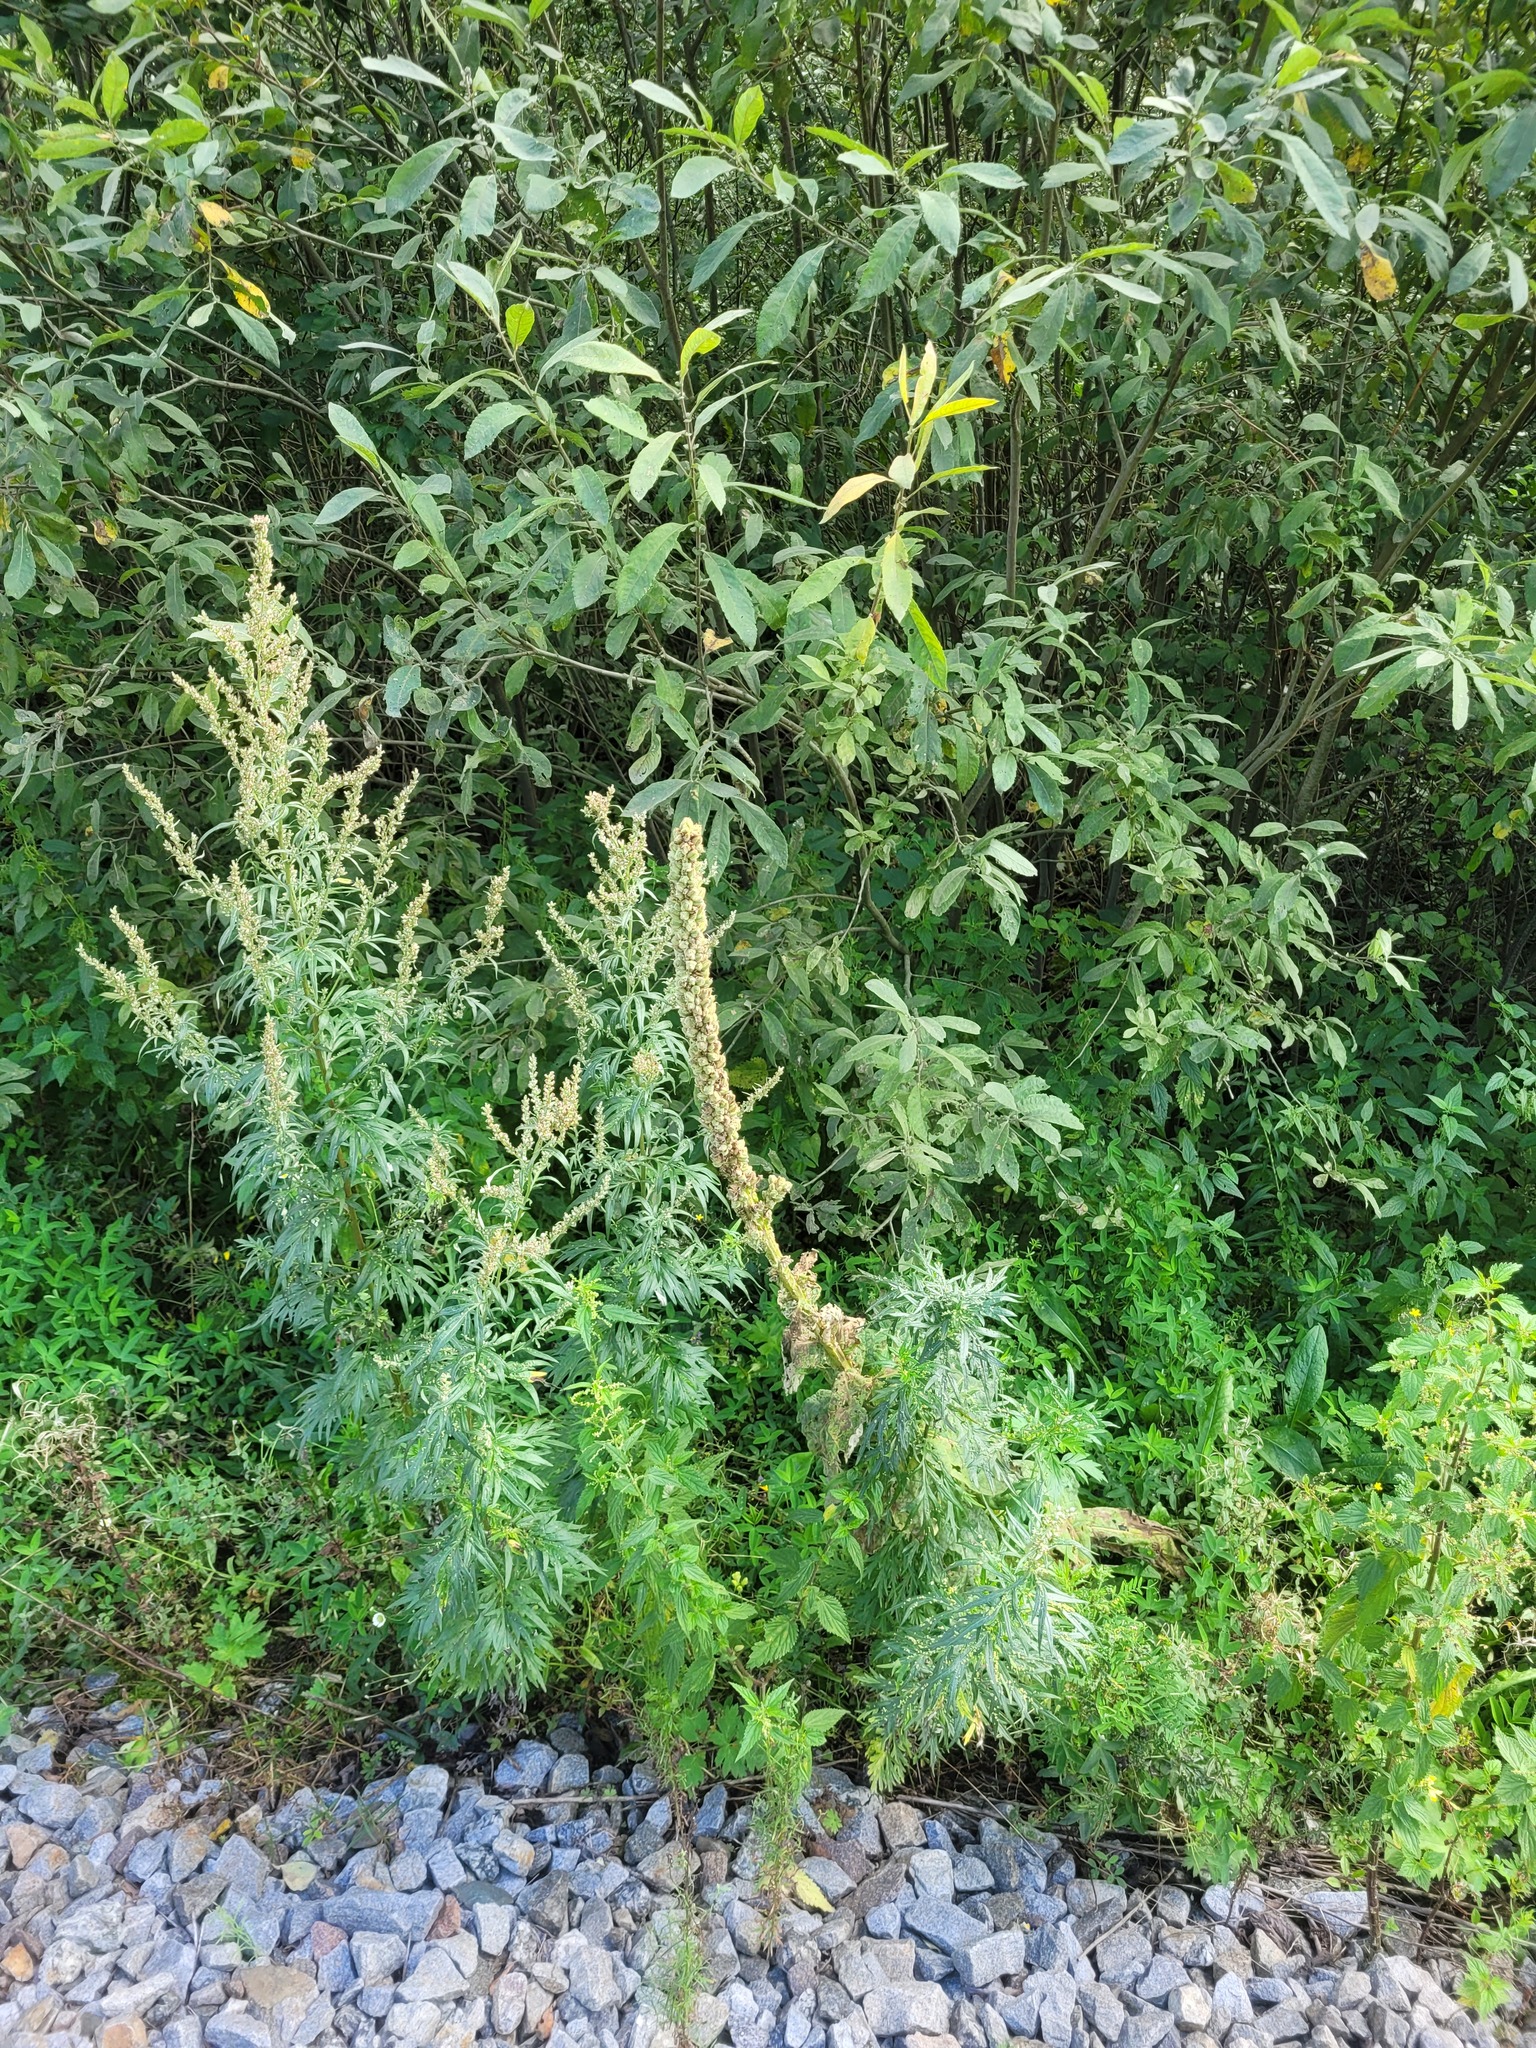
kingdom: Plantae
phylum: Tracheophyta
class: Magnoliopsida
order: Lamiales
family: Scrophulariaceae
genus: Verbascum
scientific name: Verbascum thapsus
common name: Common mullein
